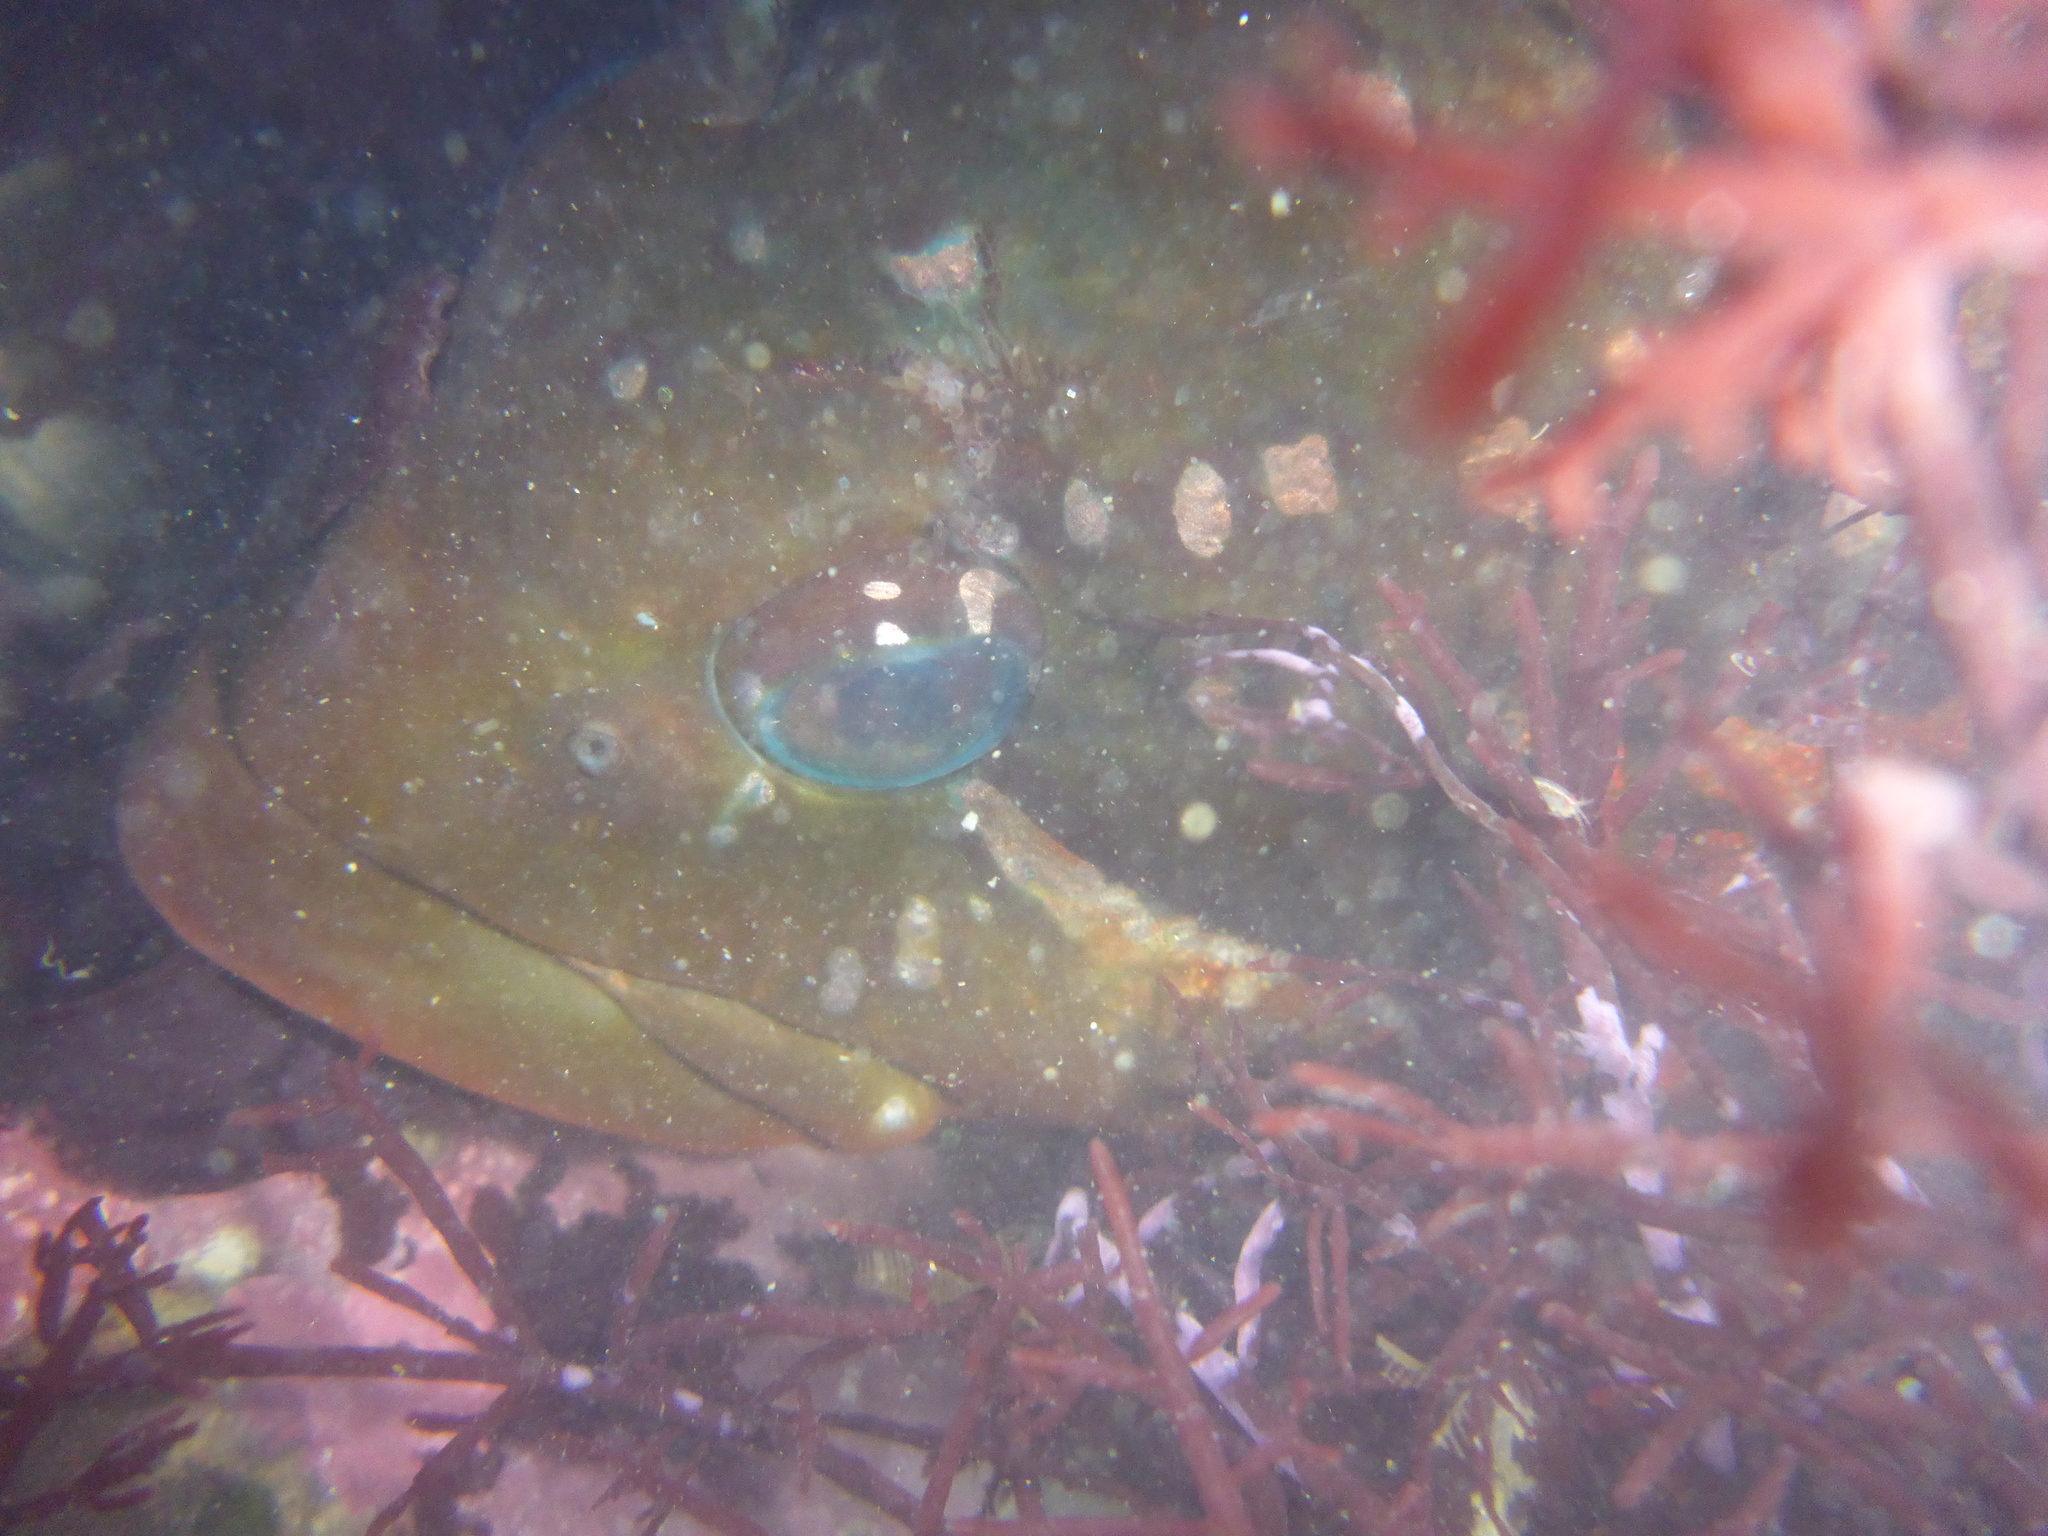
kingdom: Animalia
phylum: Chordata
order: Scorpaeniformes
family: Hexagrammidae
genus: Hexagrammos
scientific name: Hexagrammos lagocephalus
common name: Rock greenling
